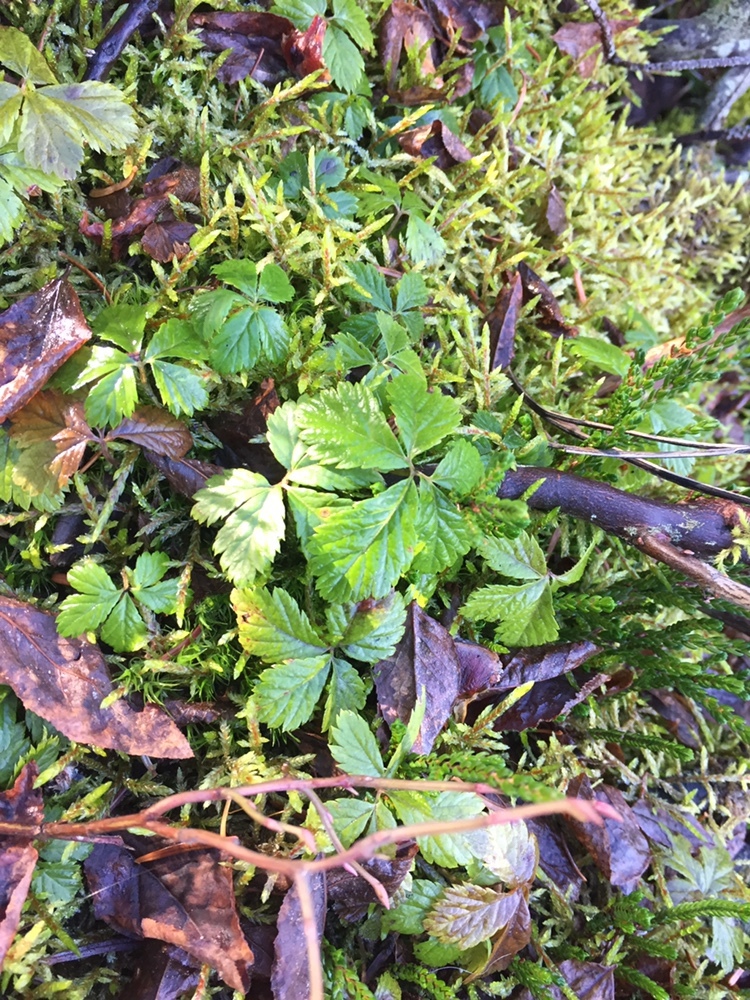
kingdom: Plantae
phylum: Tracheophyta
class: Magnoliopsida
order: Rosales
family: Rosaceae
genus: Rubus
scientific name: Rubus pedatus
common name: Creeping raspberry
